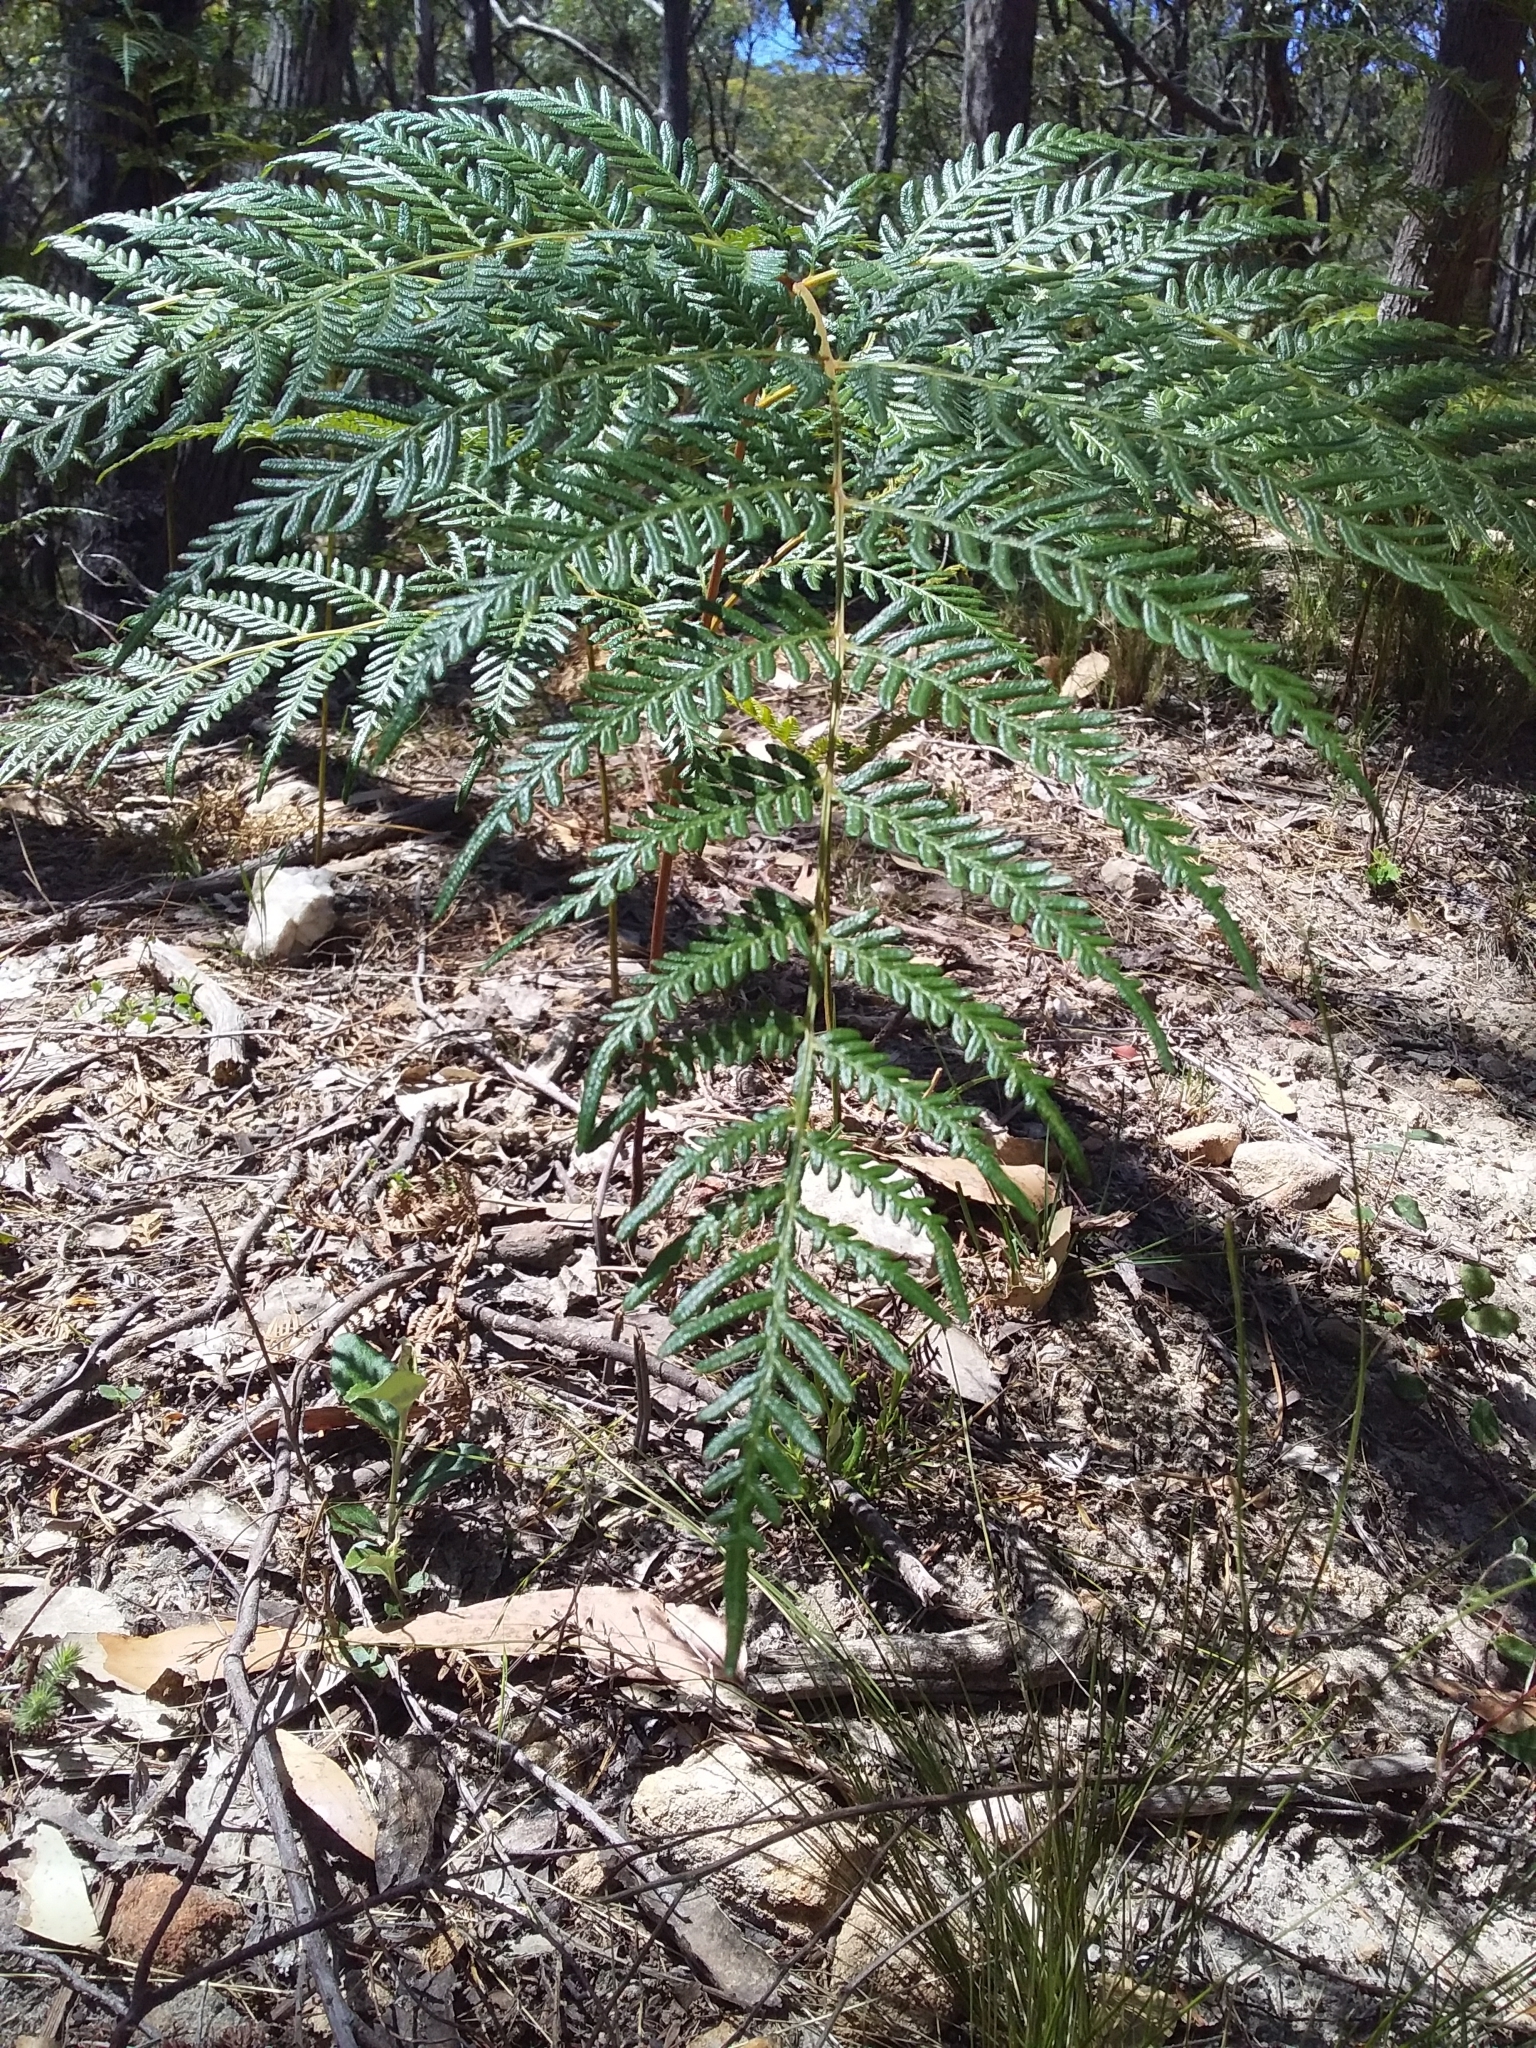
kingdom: Plantae
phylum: Tracheophyta
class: Polypodiopsida
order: Polypodiales
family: Dennstaedtiaceae
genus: Pteridium
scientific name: Pteridium esculentum
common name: Bracken fern
